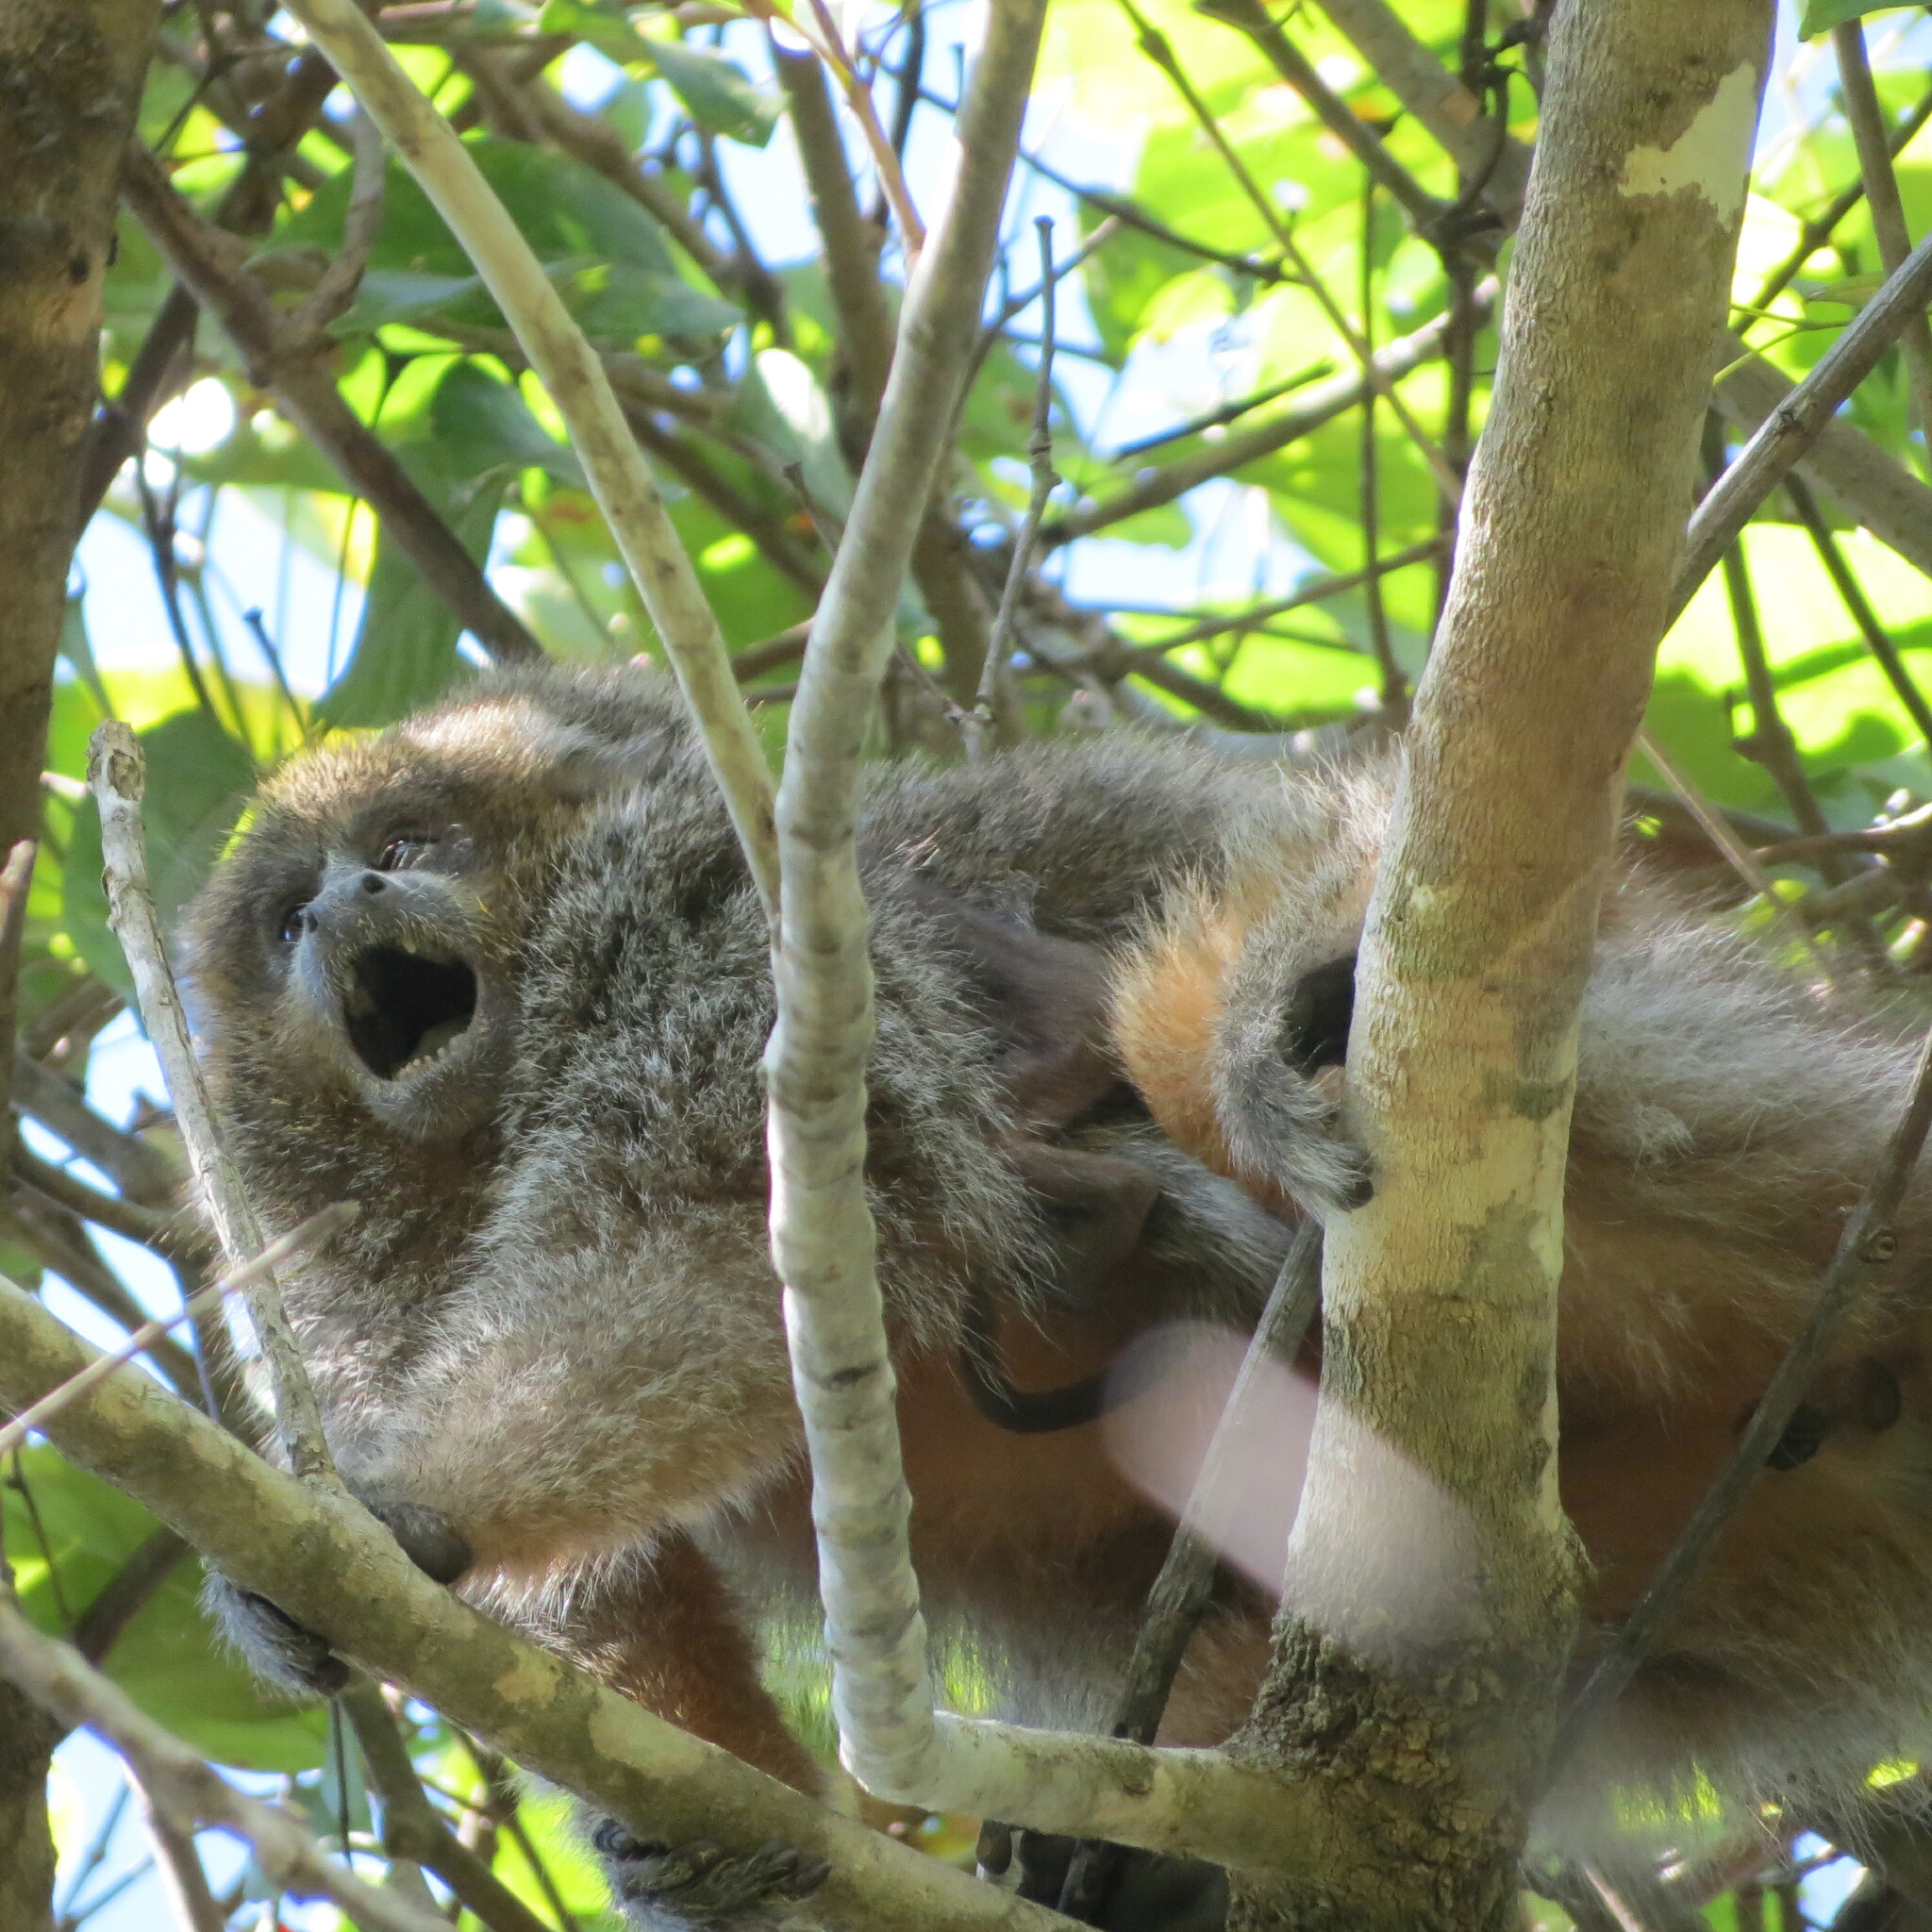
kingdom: Animalia
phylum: Chordata
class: Mammalia
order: Primates
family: Pitheciidae
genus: Plecturocebus
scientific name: Plecturocebus pallescens
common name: Pale titi
